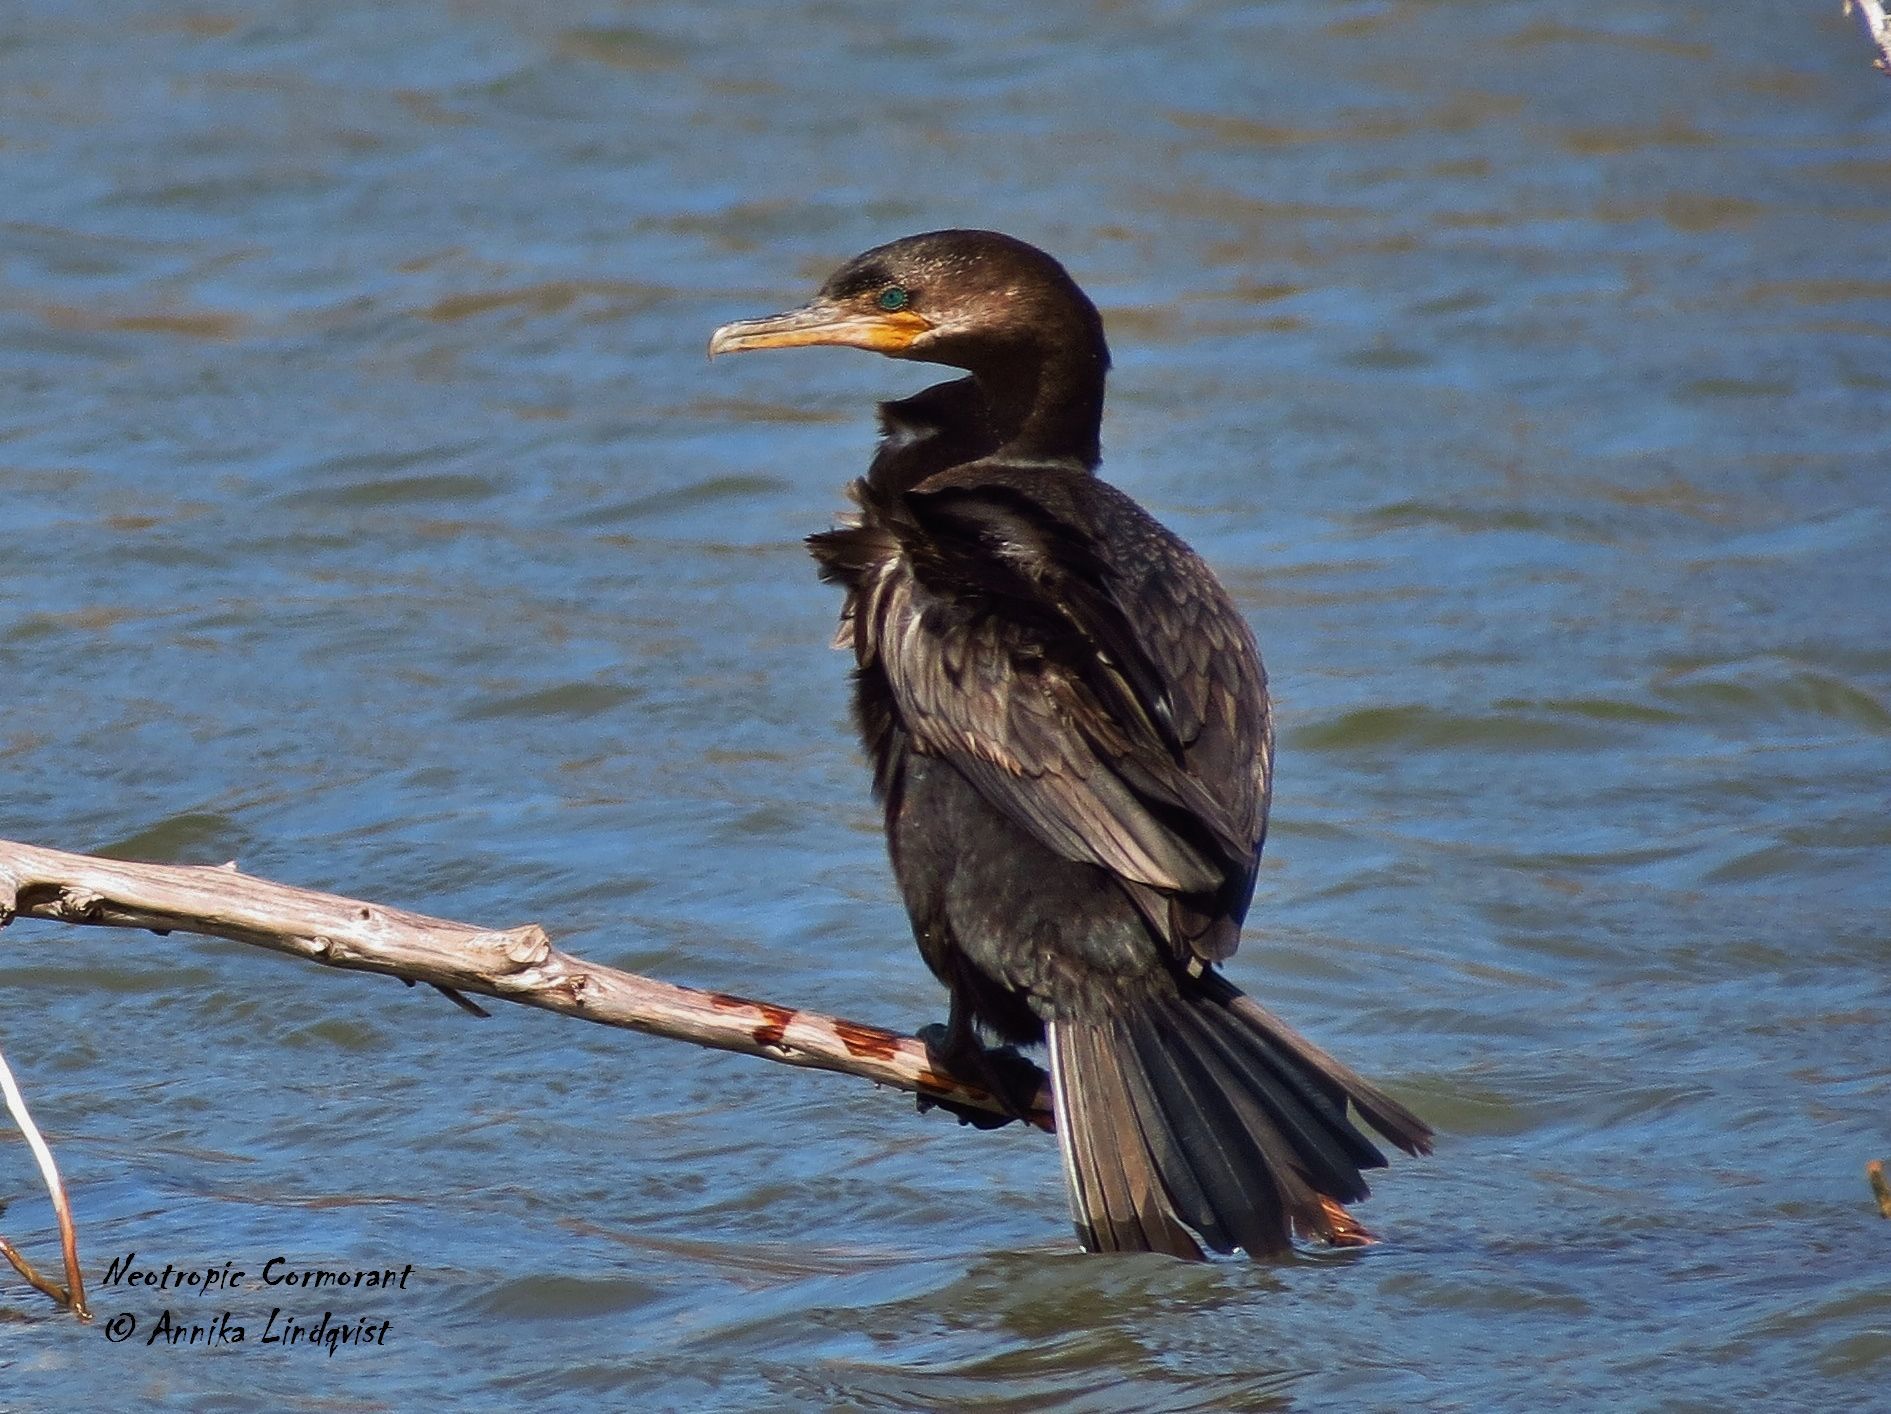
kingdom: Animalia
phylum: Chordata
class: Aves
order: Suliformes
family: Phalacrocoracidae
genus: Phalacrocorax
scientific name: Phalacrocorax brasilianus
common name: Neotropic cormorant
